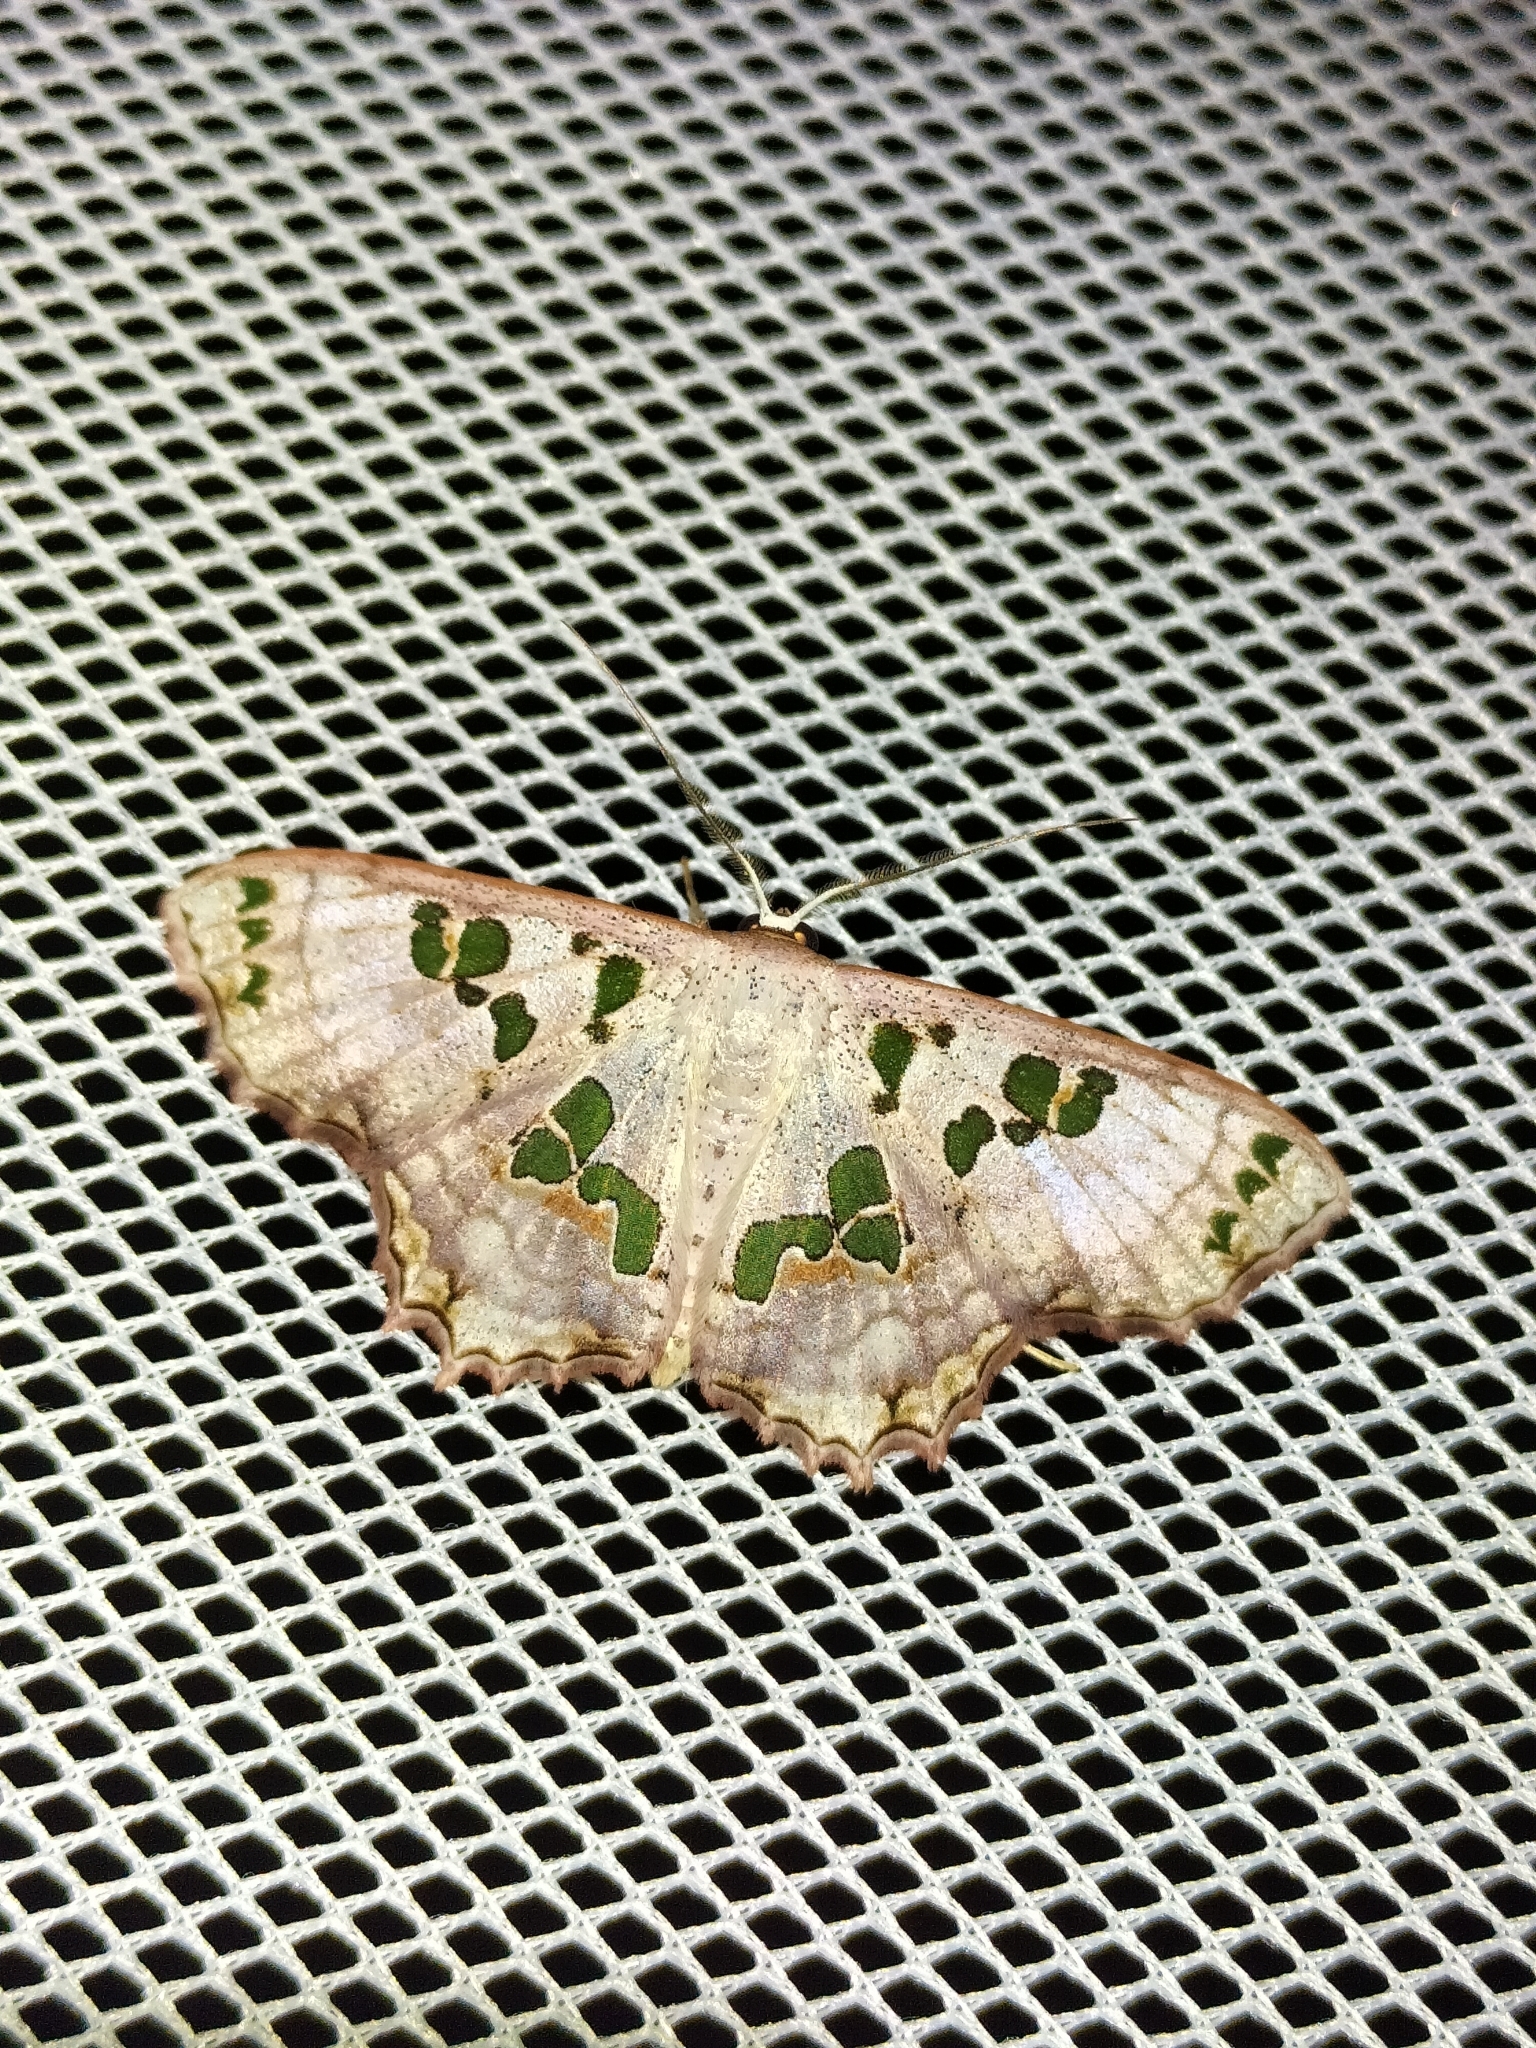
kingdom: Animalia
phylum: Arthropoda
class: Insecta
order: Lepidoptera
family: Geometridae
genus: Scopula
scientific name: Scopula parvimacula
